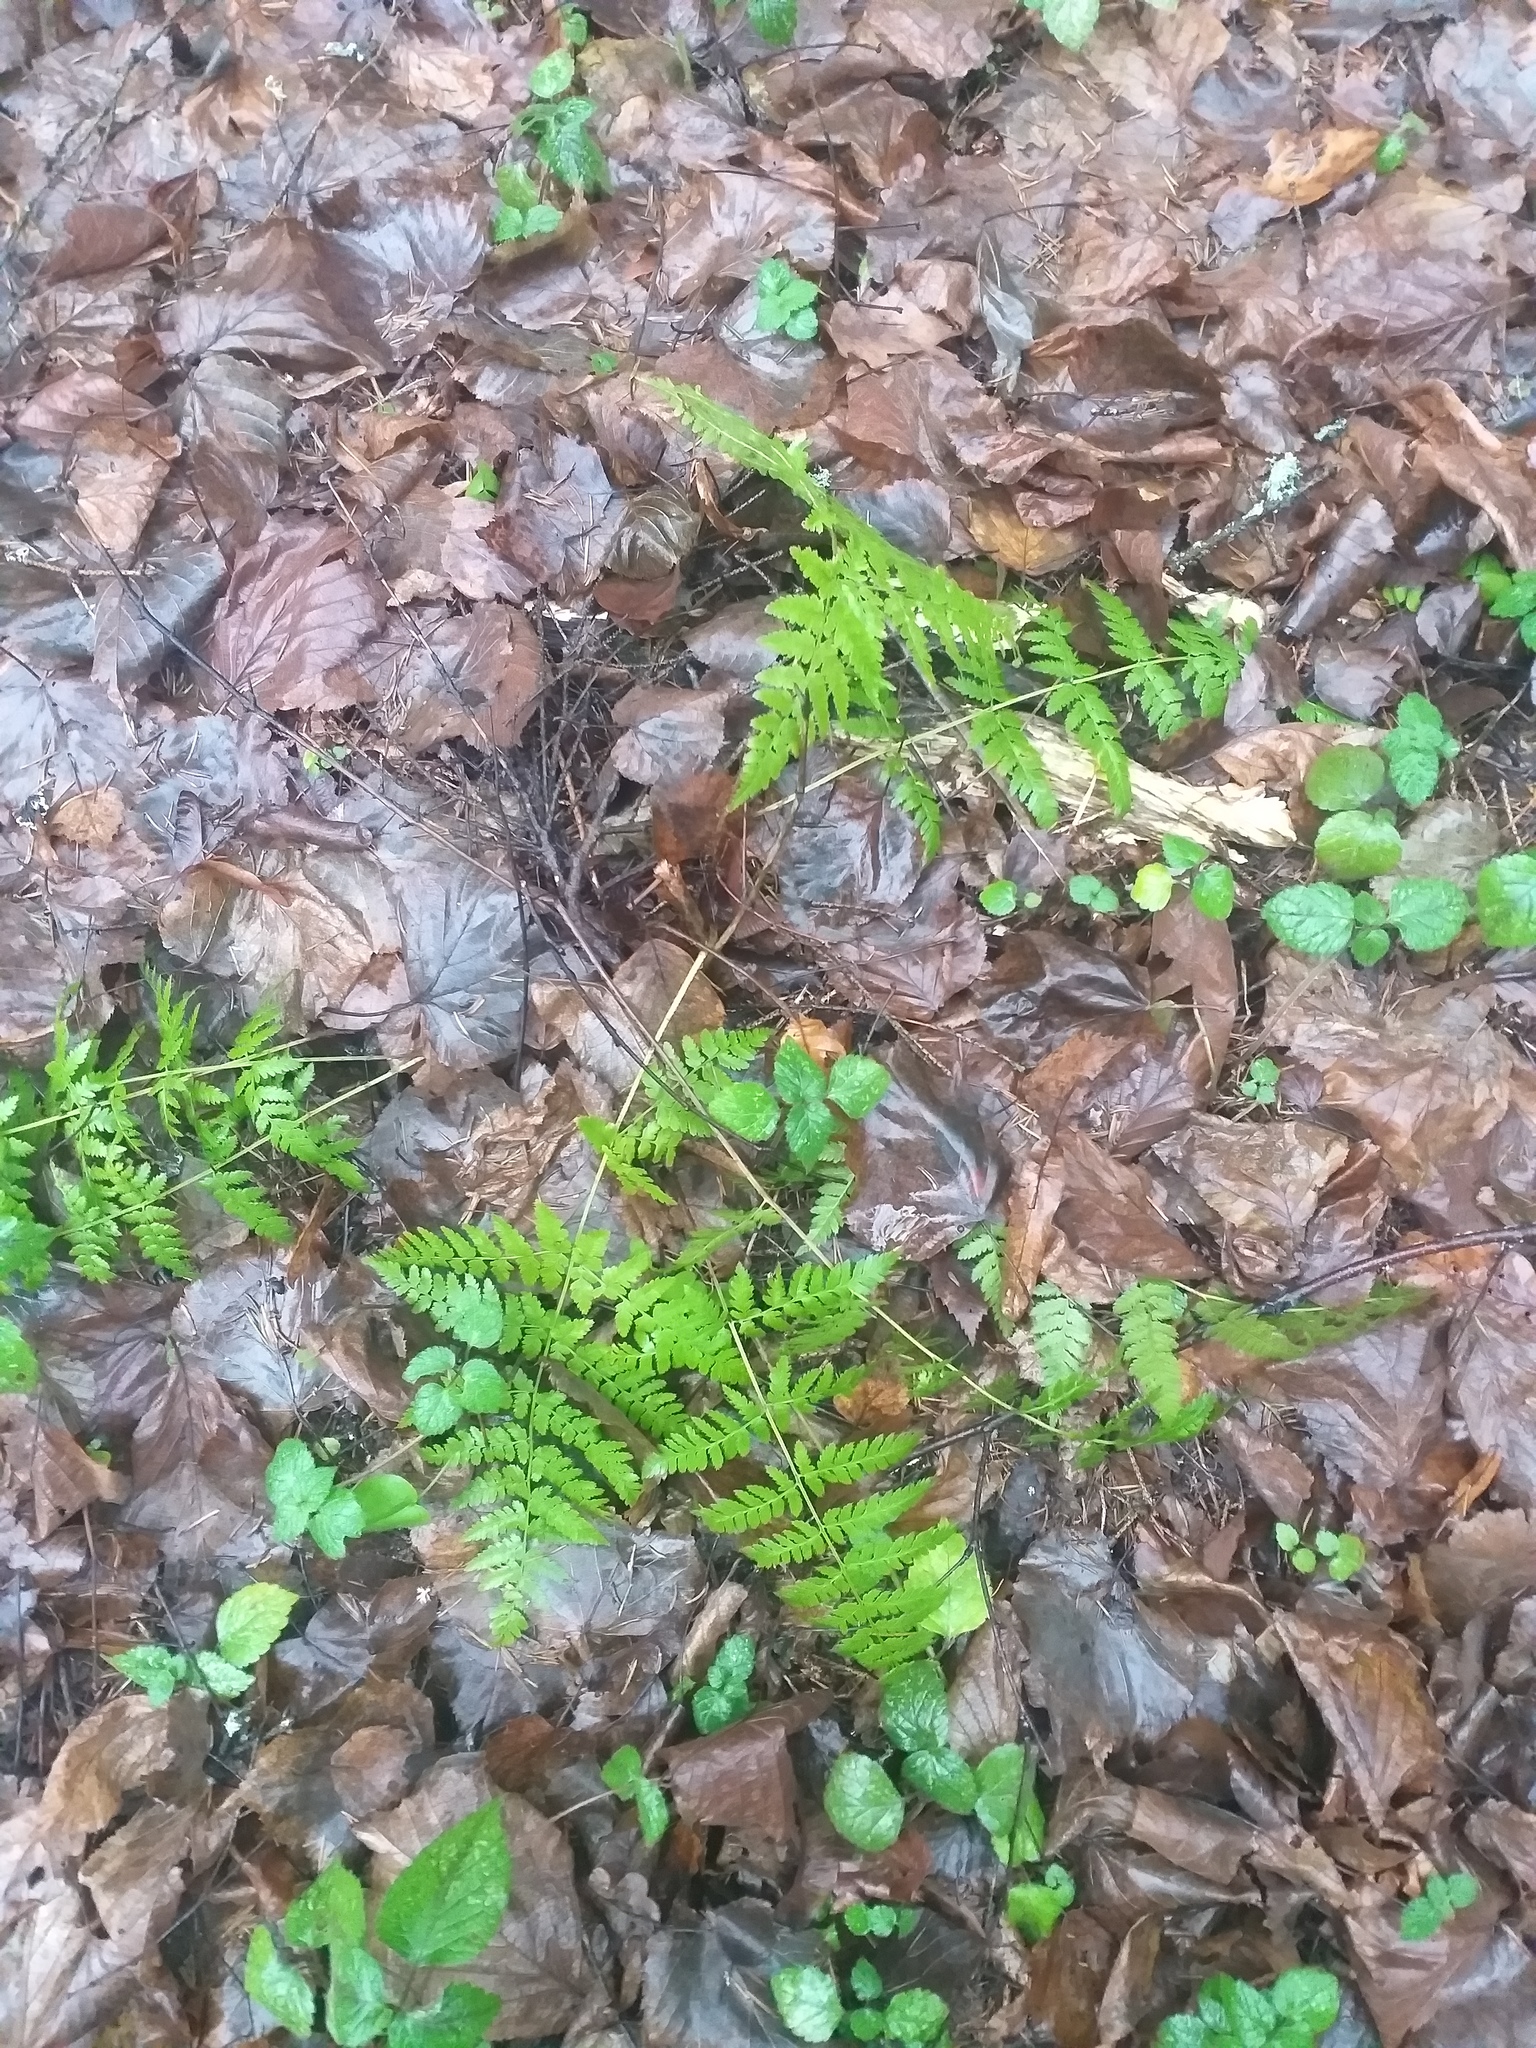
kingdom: Plantae
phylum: Tracheophyta
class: Polypodiopsida
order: Polypodiales
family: Dryopteridaceae
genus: Dryopteris
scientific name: Dryopteris carthusiana
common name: Narrow buckler-fern
